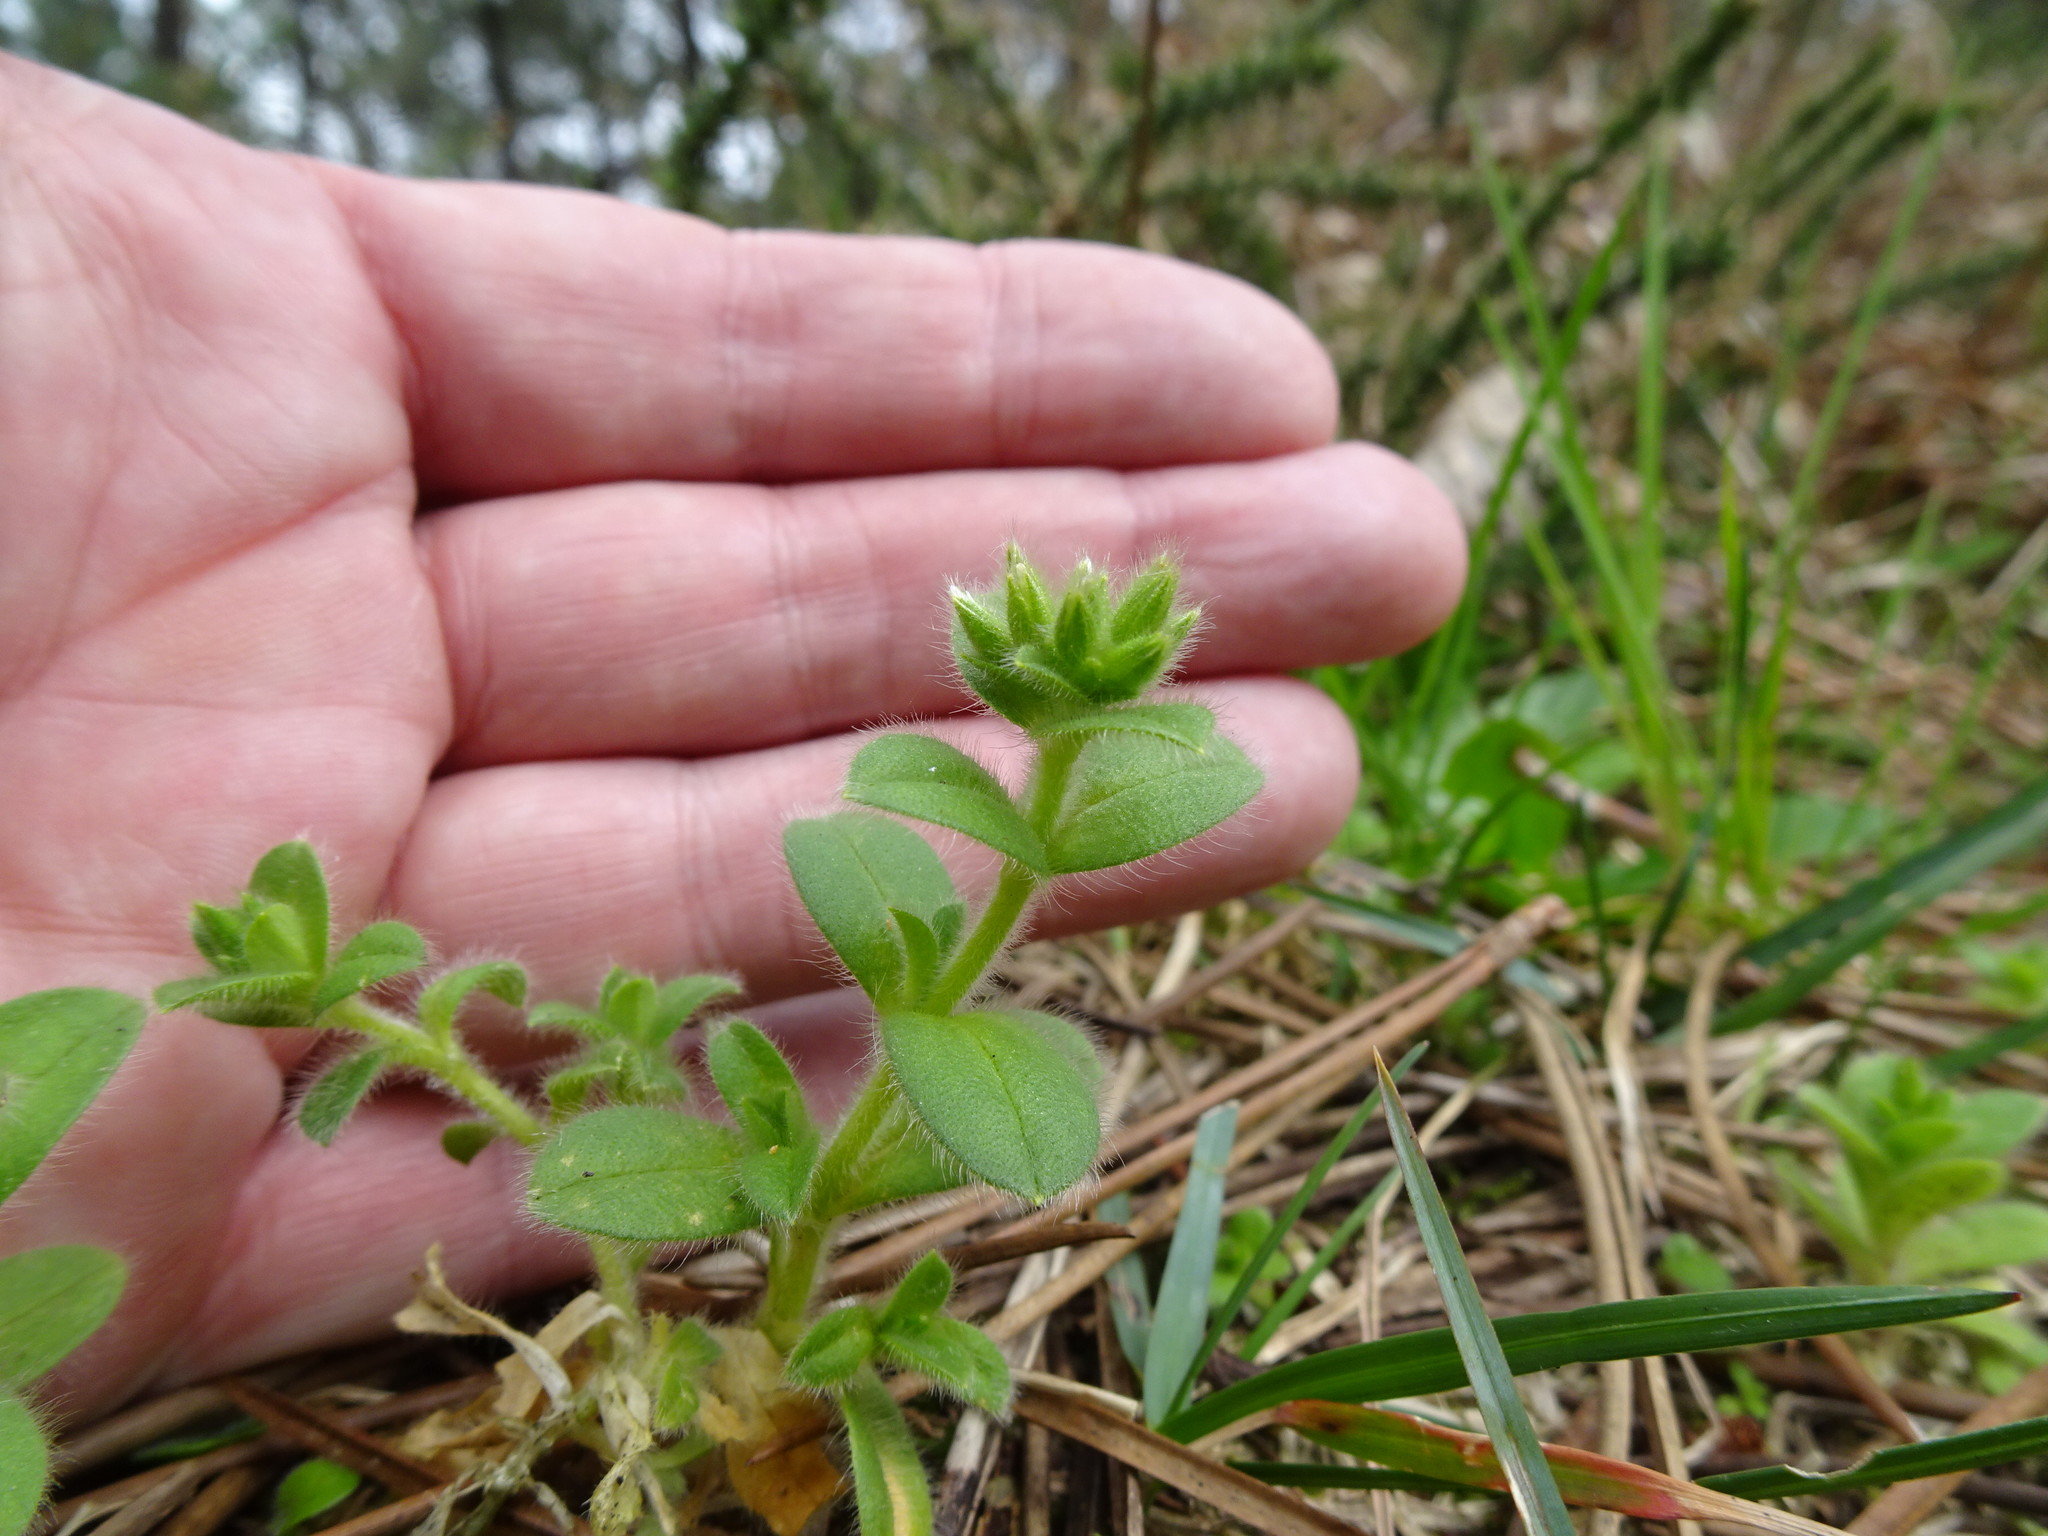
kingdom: Plantae
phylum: Tracheophyta
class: Magnoliopsida
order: Caryophyllales
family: Caryophyllaceae
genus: Cerastium
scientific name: Cerastium glomeratum
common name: Sticky chickweed
